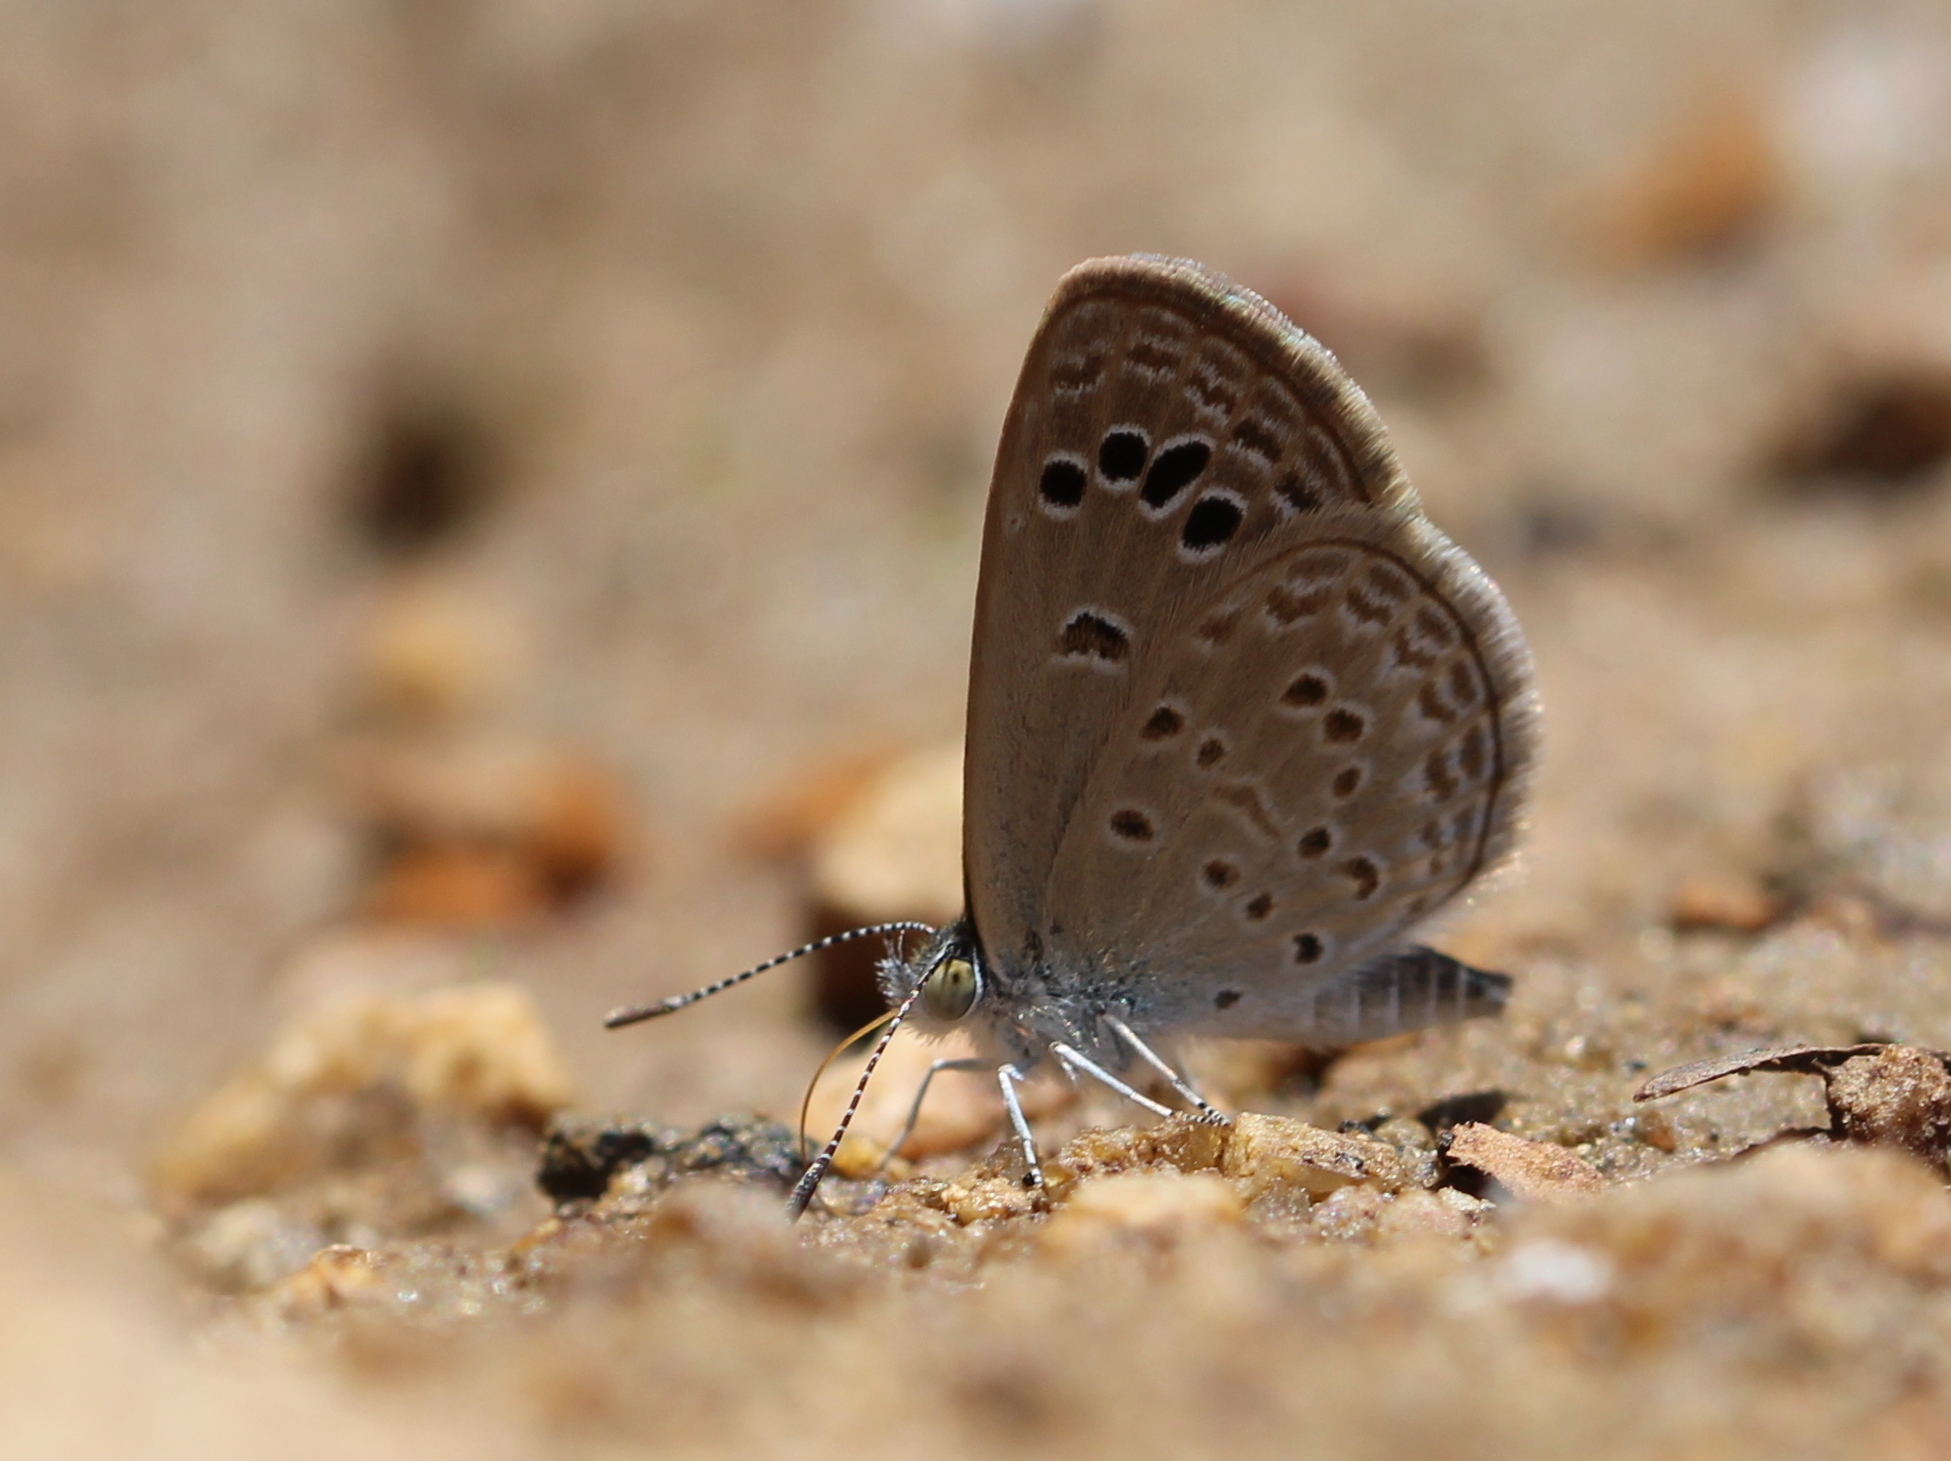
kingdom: Animalia
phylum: Arthropoda
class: Insecta
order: Lepidoptera
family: Lycaenidae
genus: Zizina
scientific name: Zizina otis
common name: Lesser grass blue
